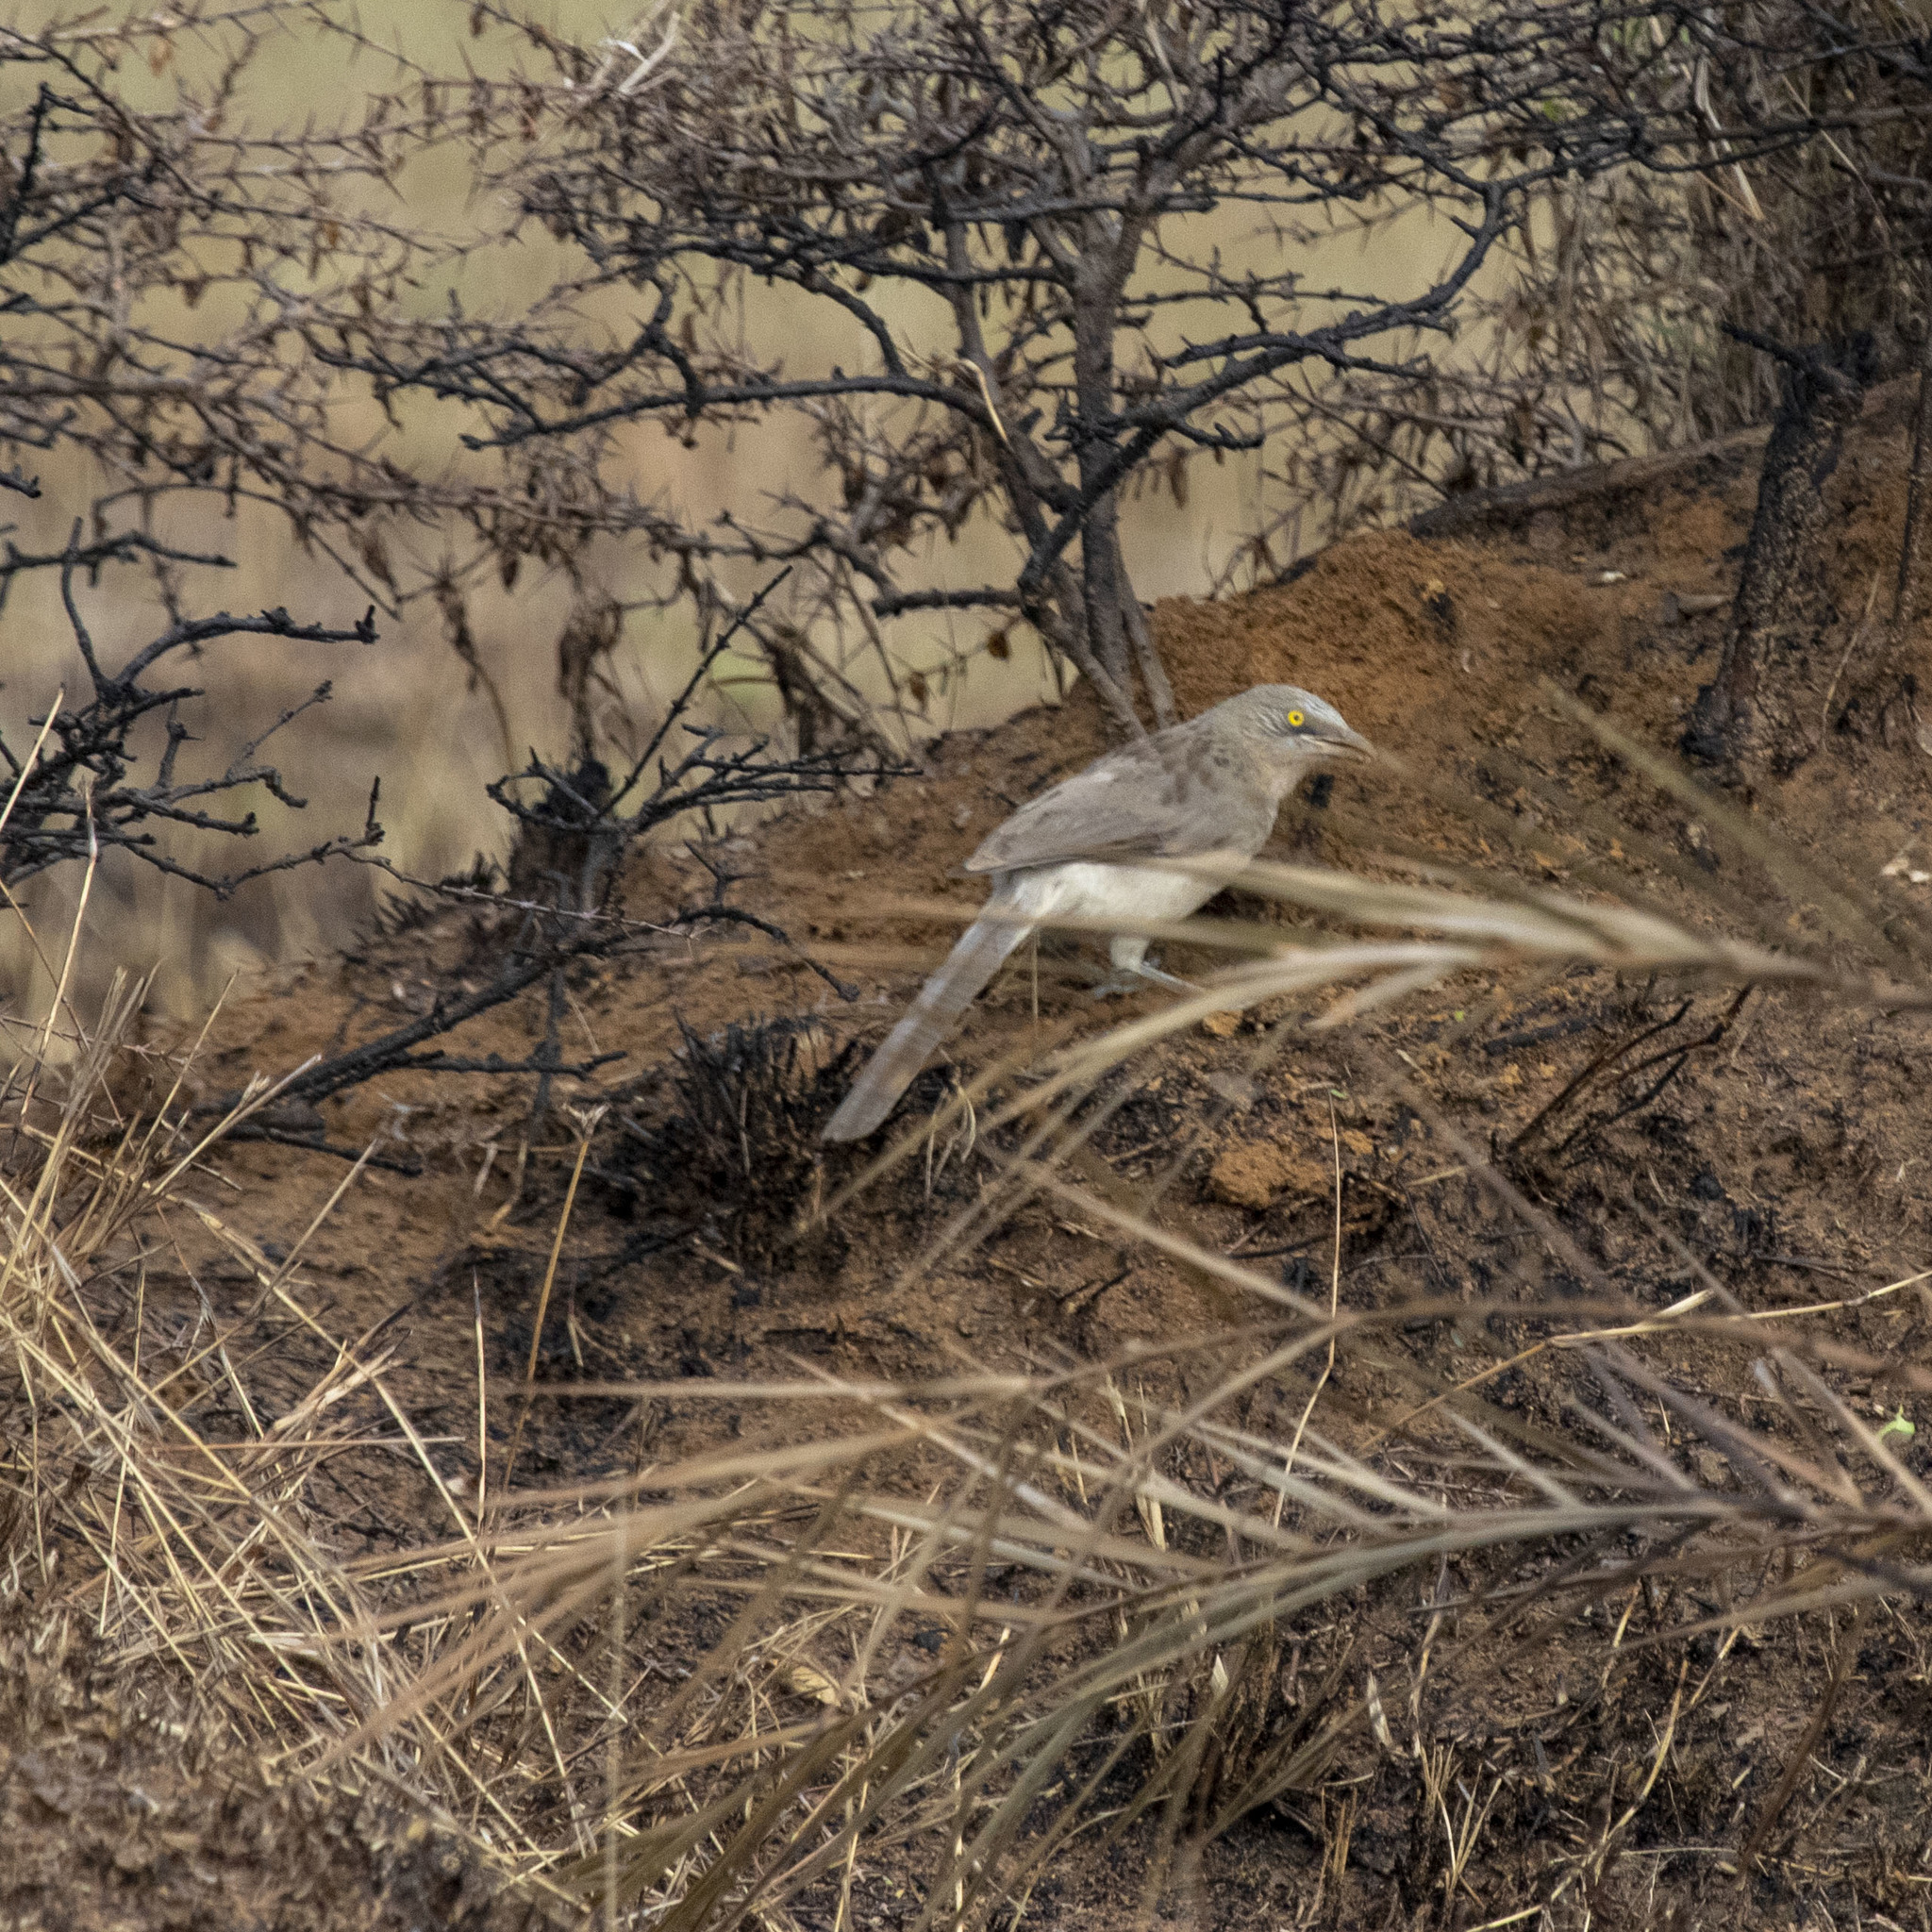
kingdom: Animalia
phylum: Chordata
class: Aves
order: Passeriformes
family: Leiothrichidae
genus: Turdoides
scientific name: Turdoides malcolmi
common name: Large grey babbler
